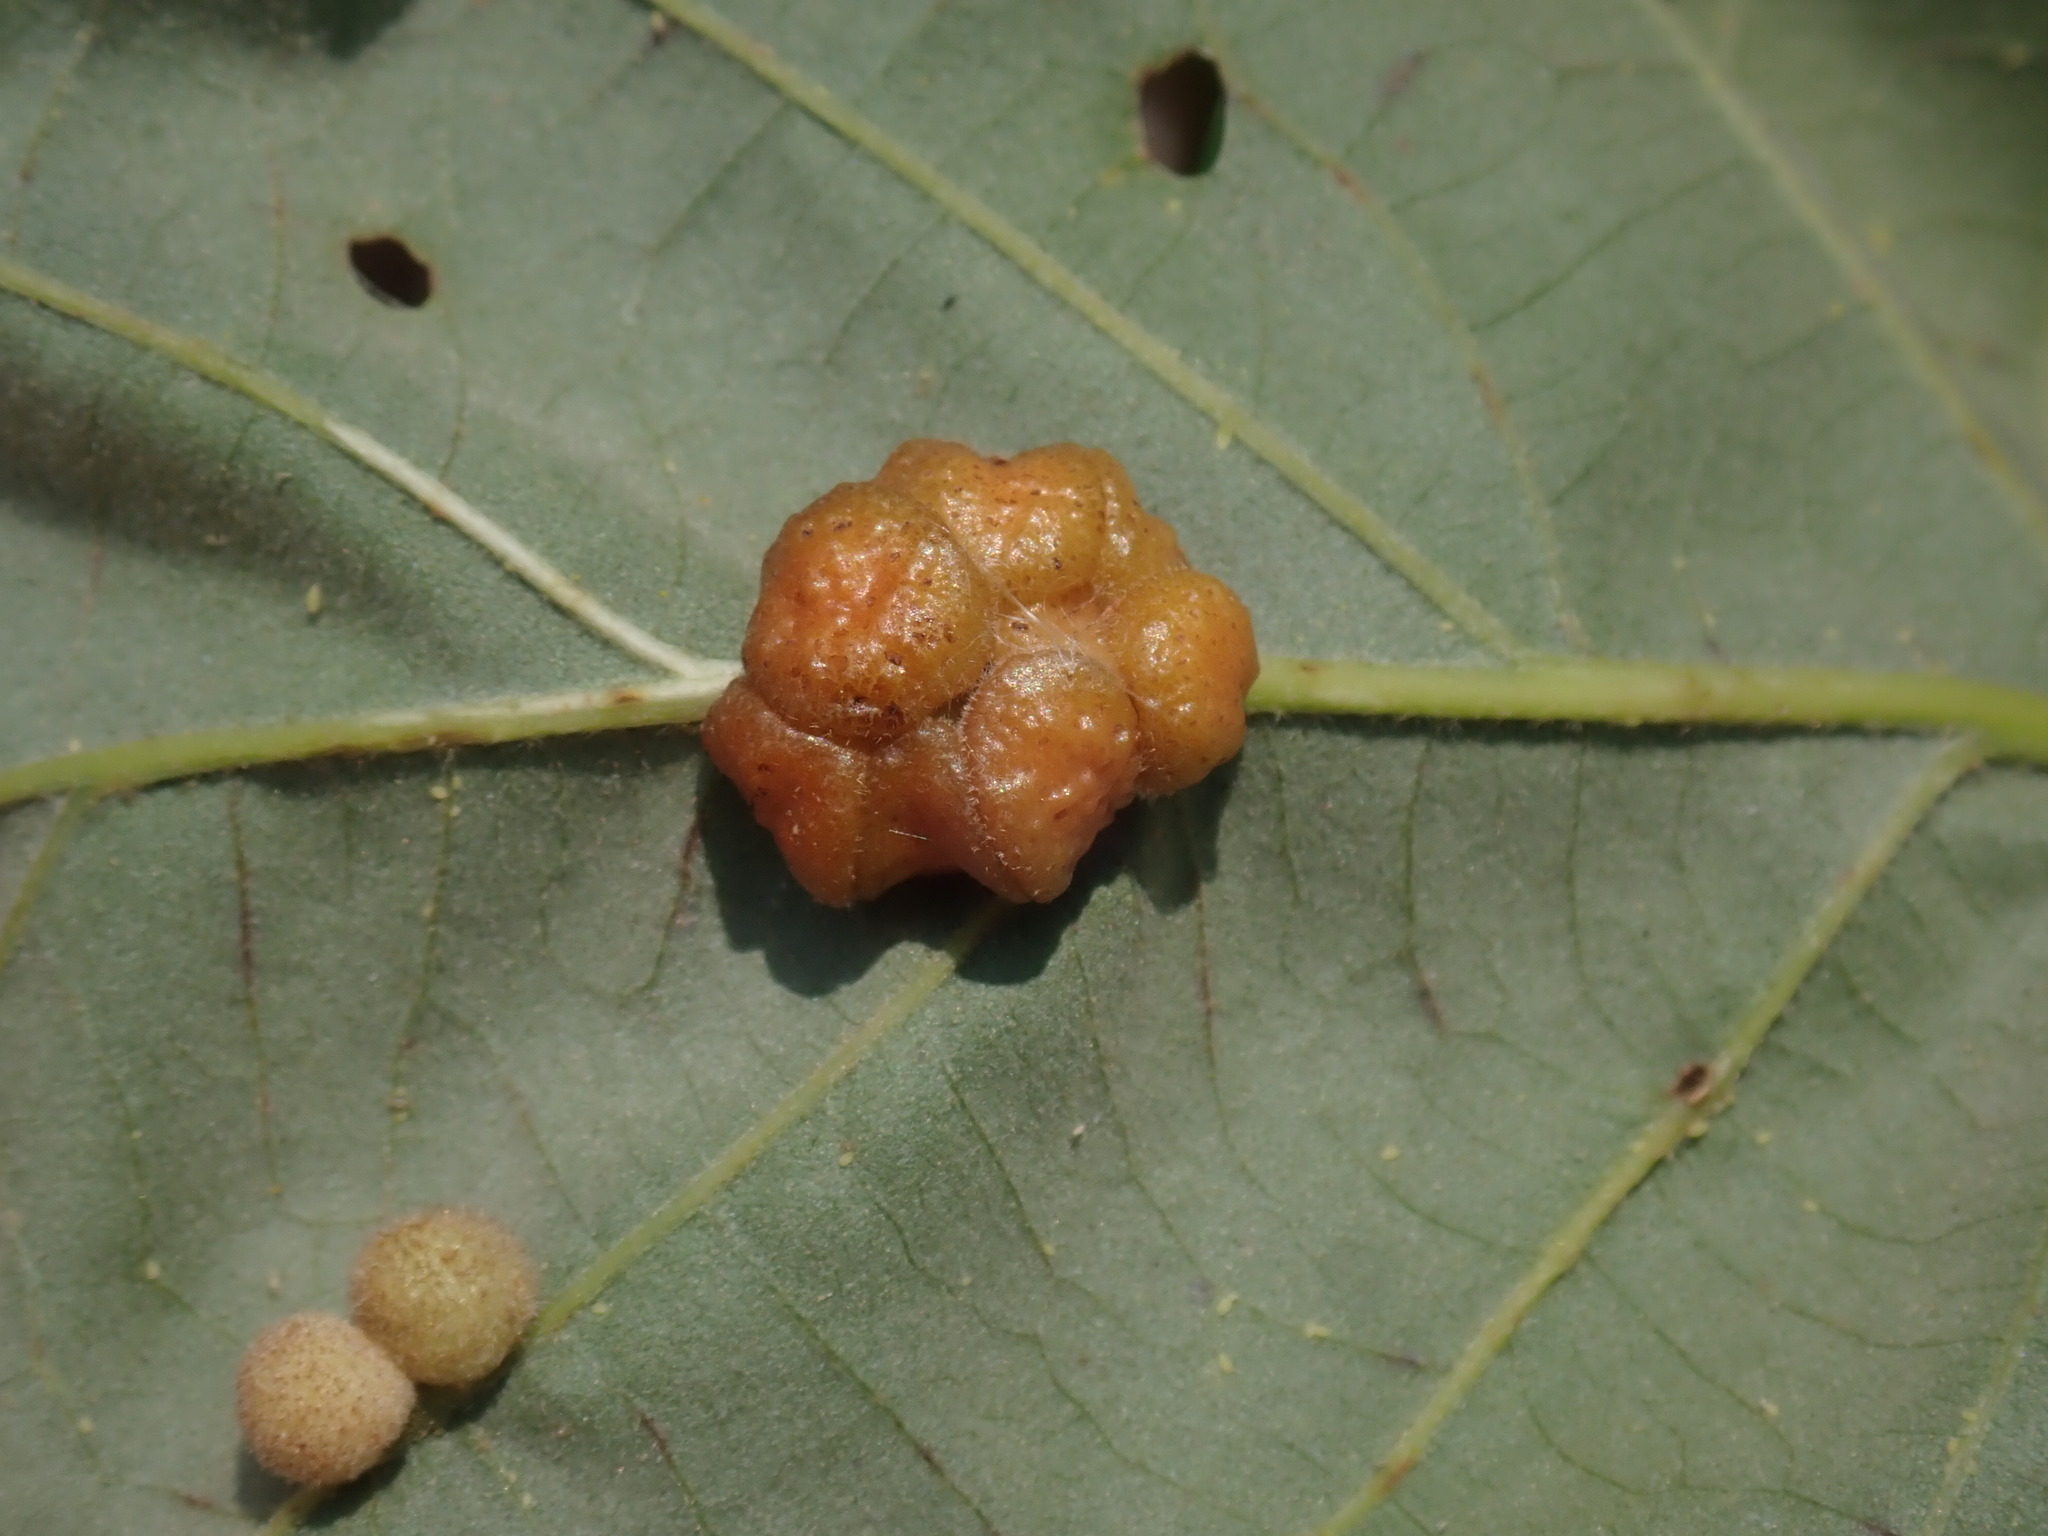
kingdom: Animalia
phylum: Arthropoda
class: Insecta
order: Hymenoptera
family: Cynipidae
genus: Andricus
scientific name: Andricus
